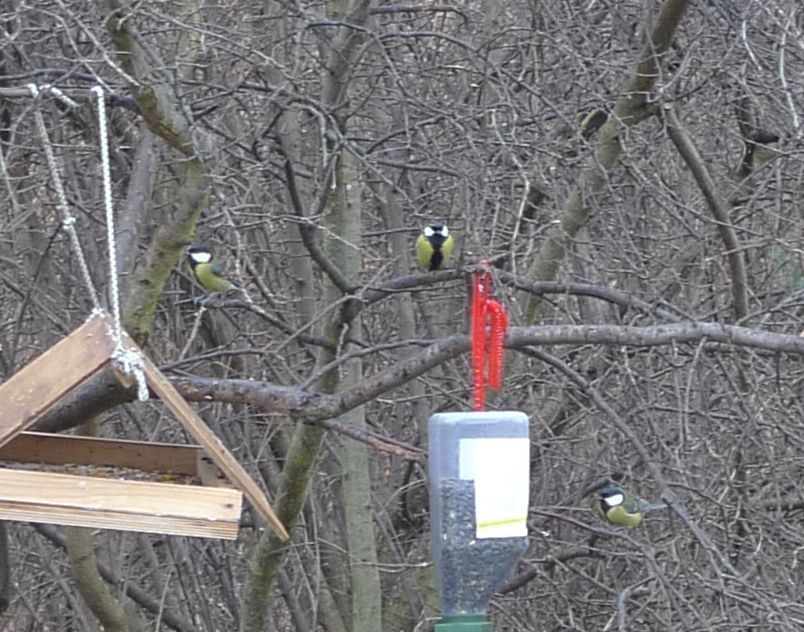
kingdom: Animalia
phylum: Chordata
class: Aves
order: Passeriformes
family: Paridae
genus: Parus
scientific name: Parus major
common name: Great tit
